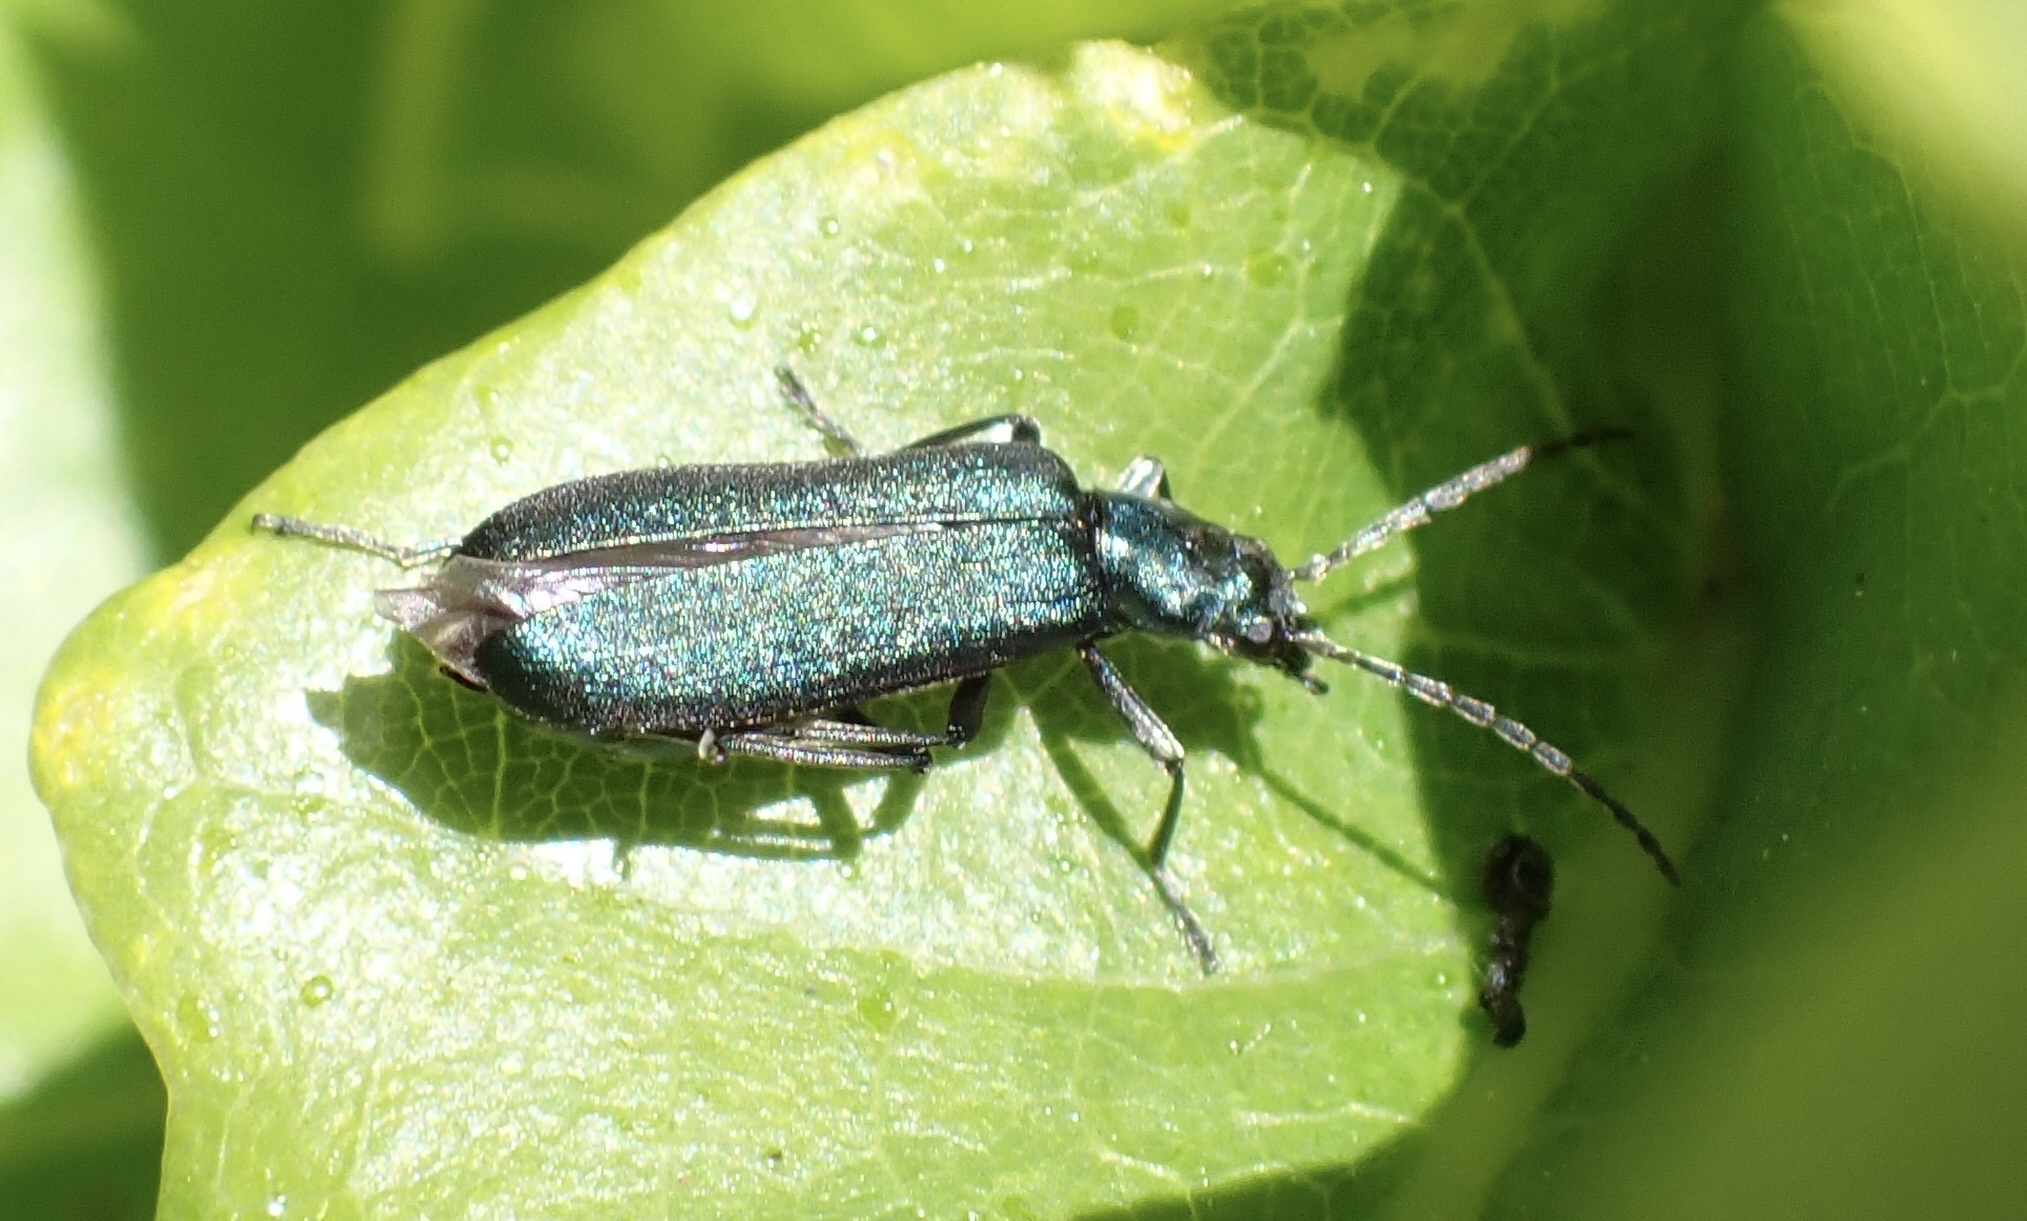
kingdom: Animalia
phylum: Arthropoda
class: Insecta
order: Coleoptera
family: Oedemeridae
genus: Ischnomera
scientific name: Ischnomera cyanea
